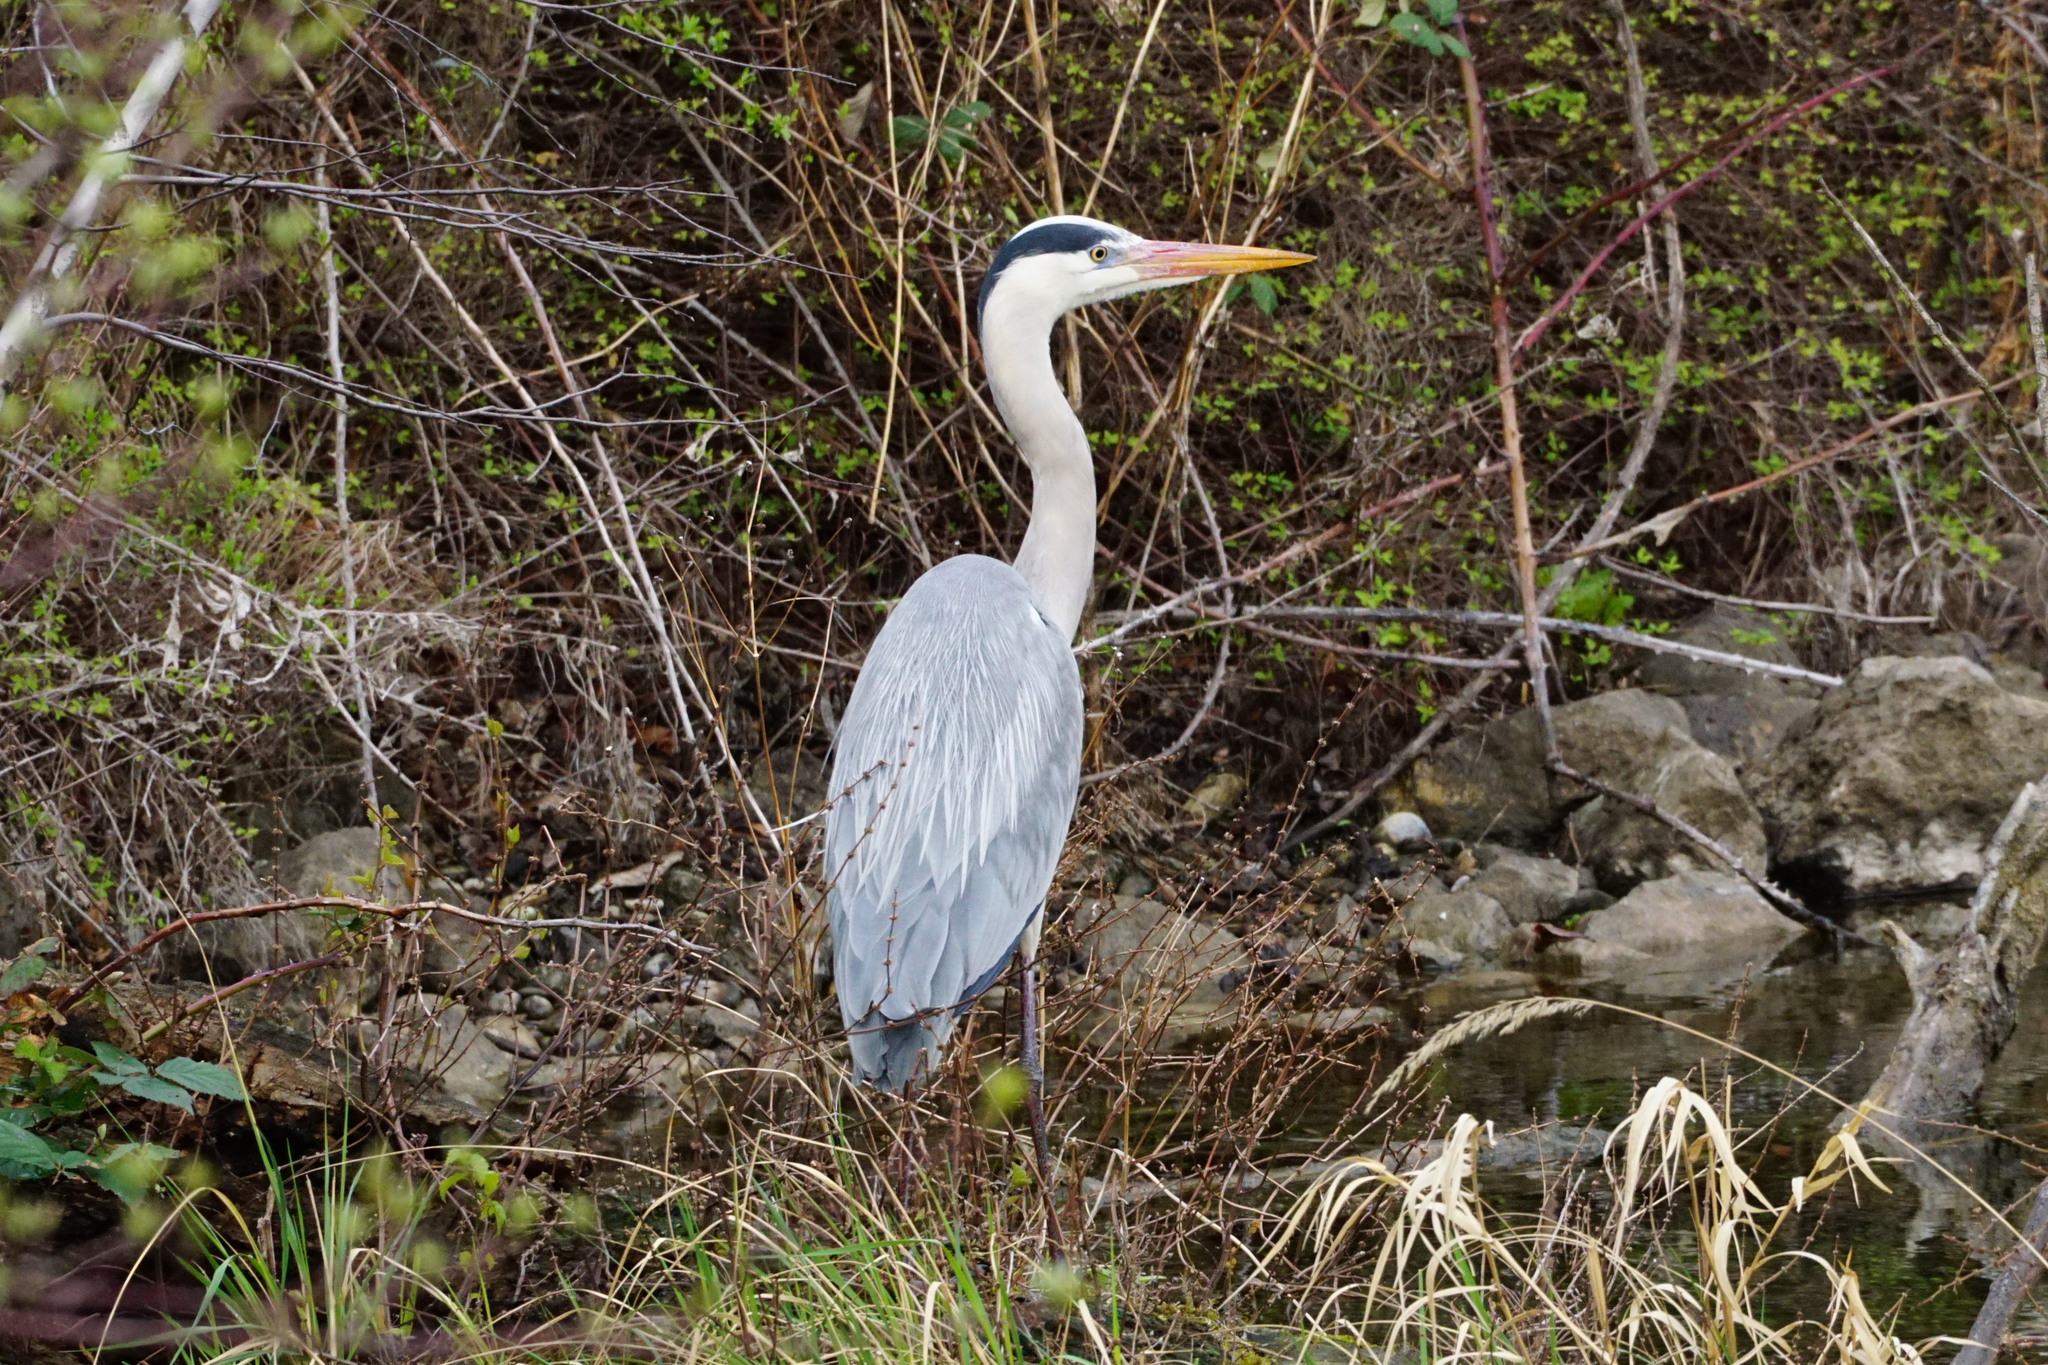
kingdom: Animalia
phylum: Chordata
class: Aves
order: Pelecaniformes
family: Ardeidae
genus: Ardea
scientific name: Ardea cinerea
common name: Grey heron
